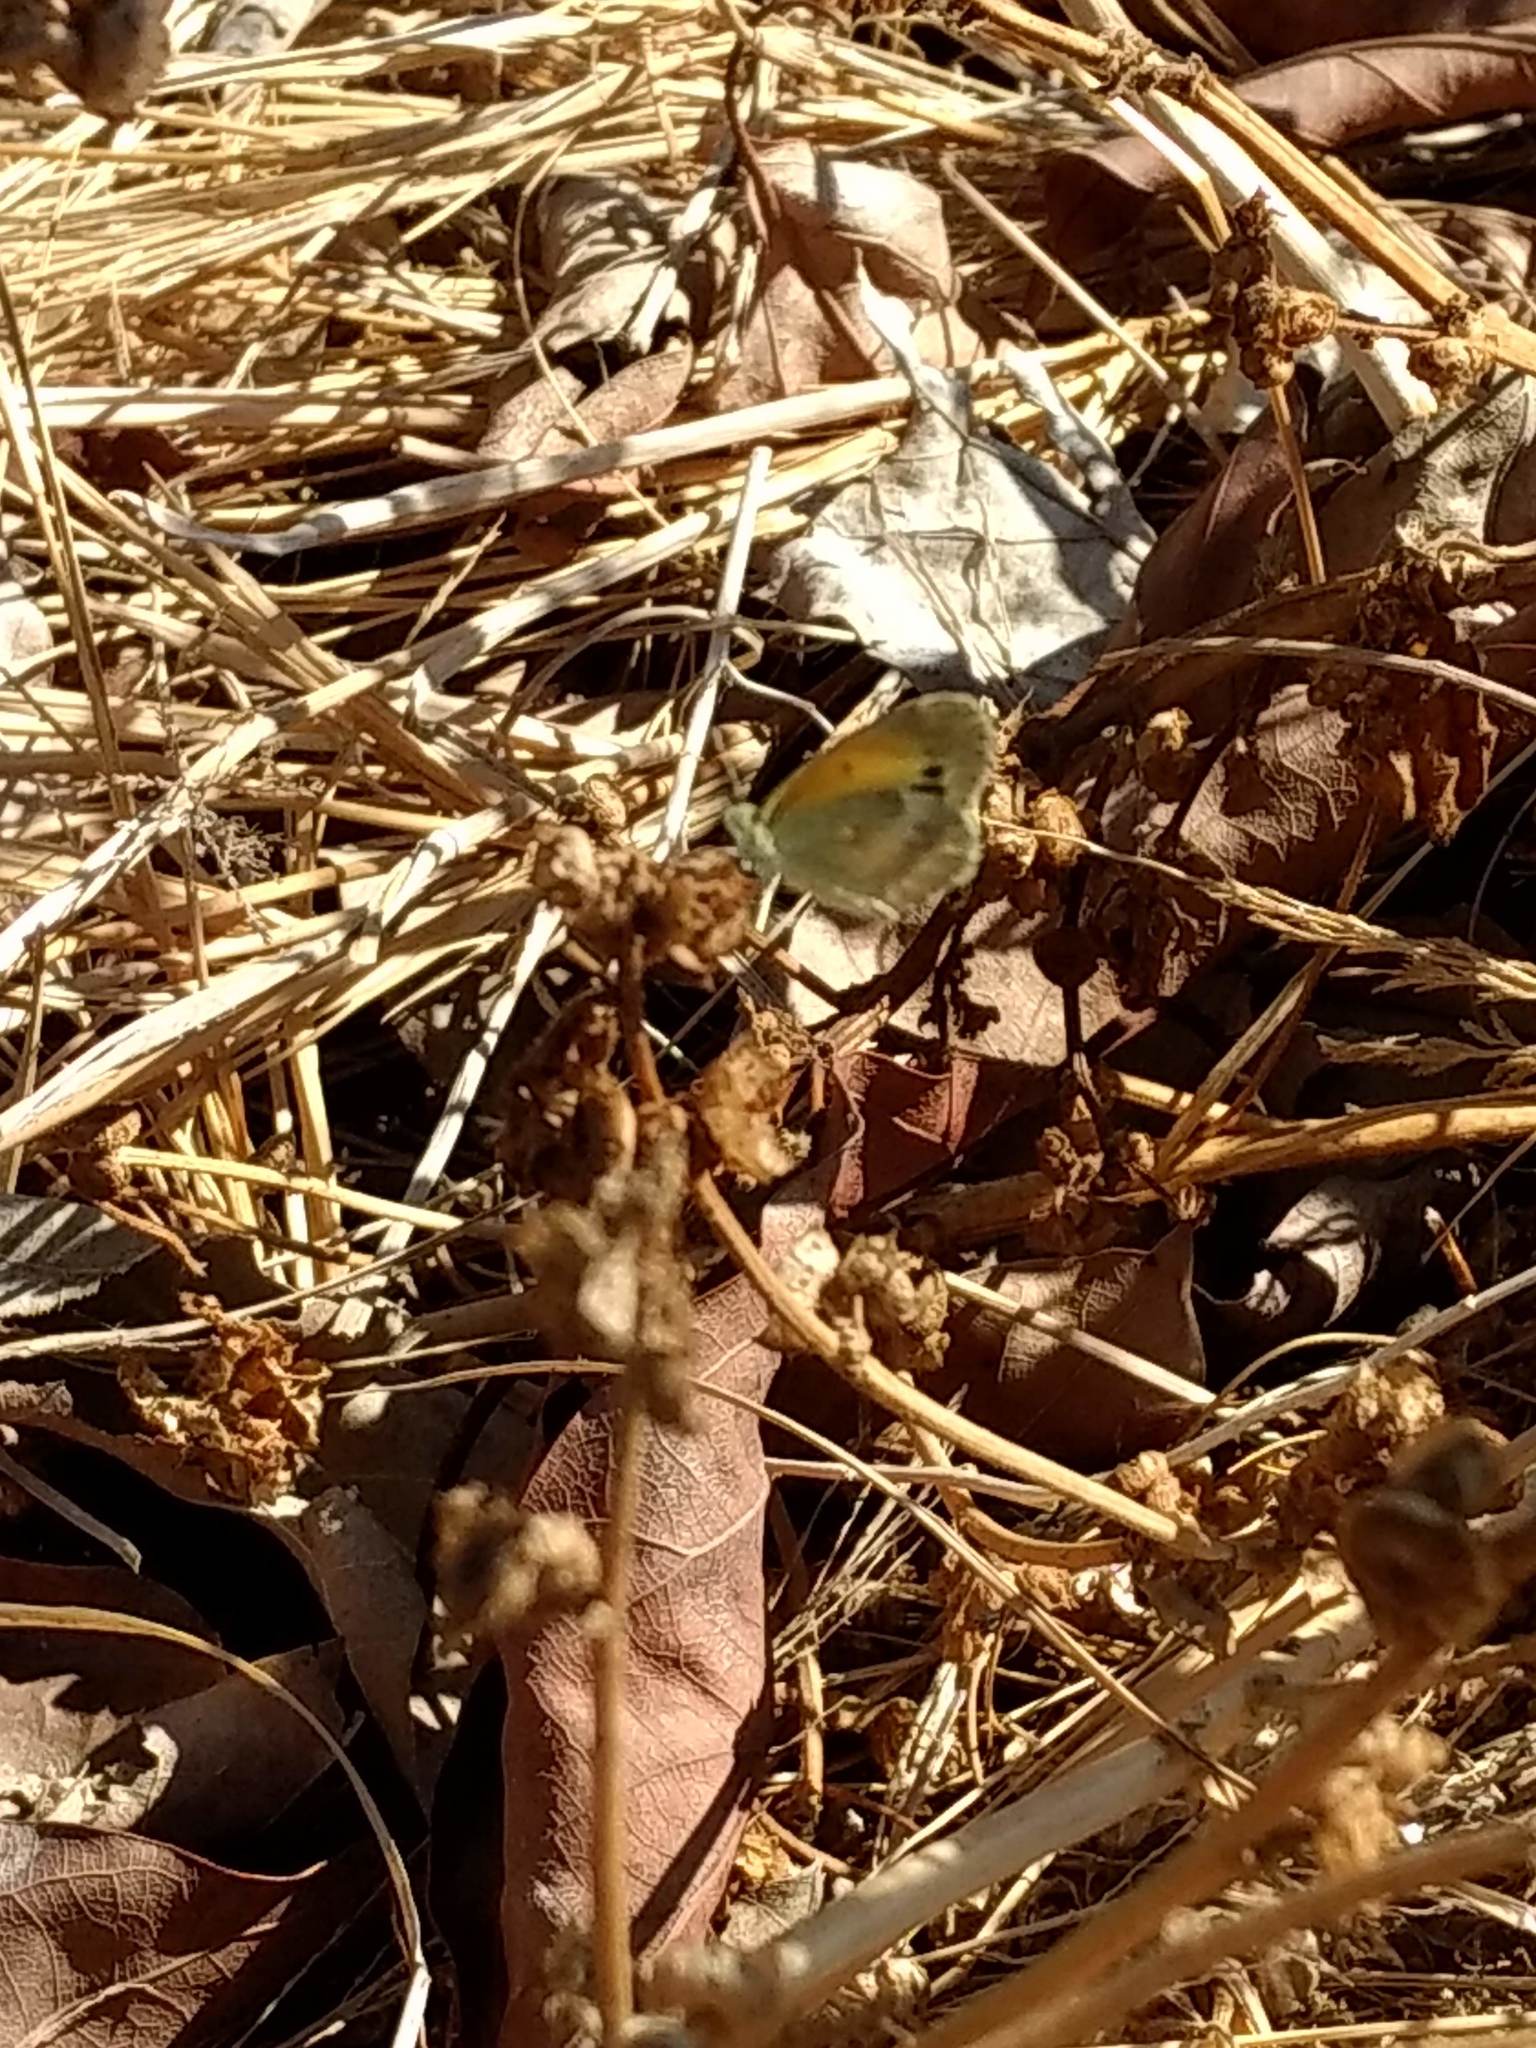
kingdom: Animalia
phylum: Arthropoda
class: Insecta
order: Lepidoptera
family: Pieridae
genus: Nathalis
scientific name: Nathalis iole
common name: Dainty sulphur
